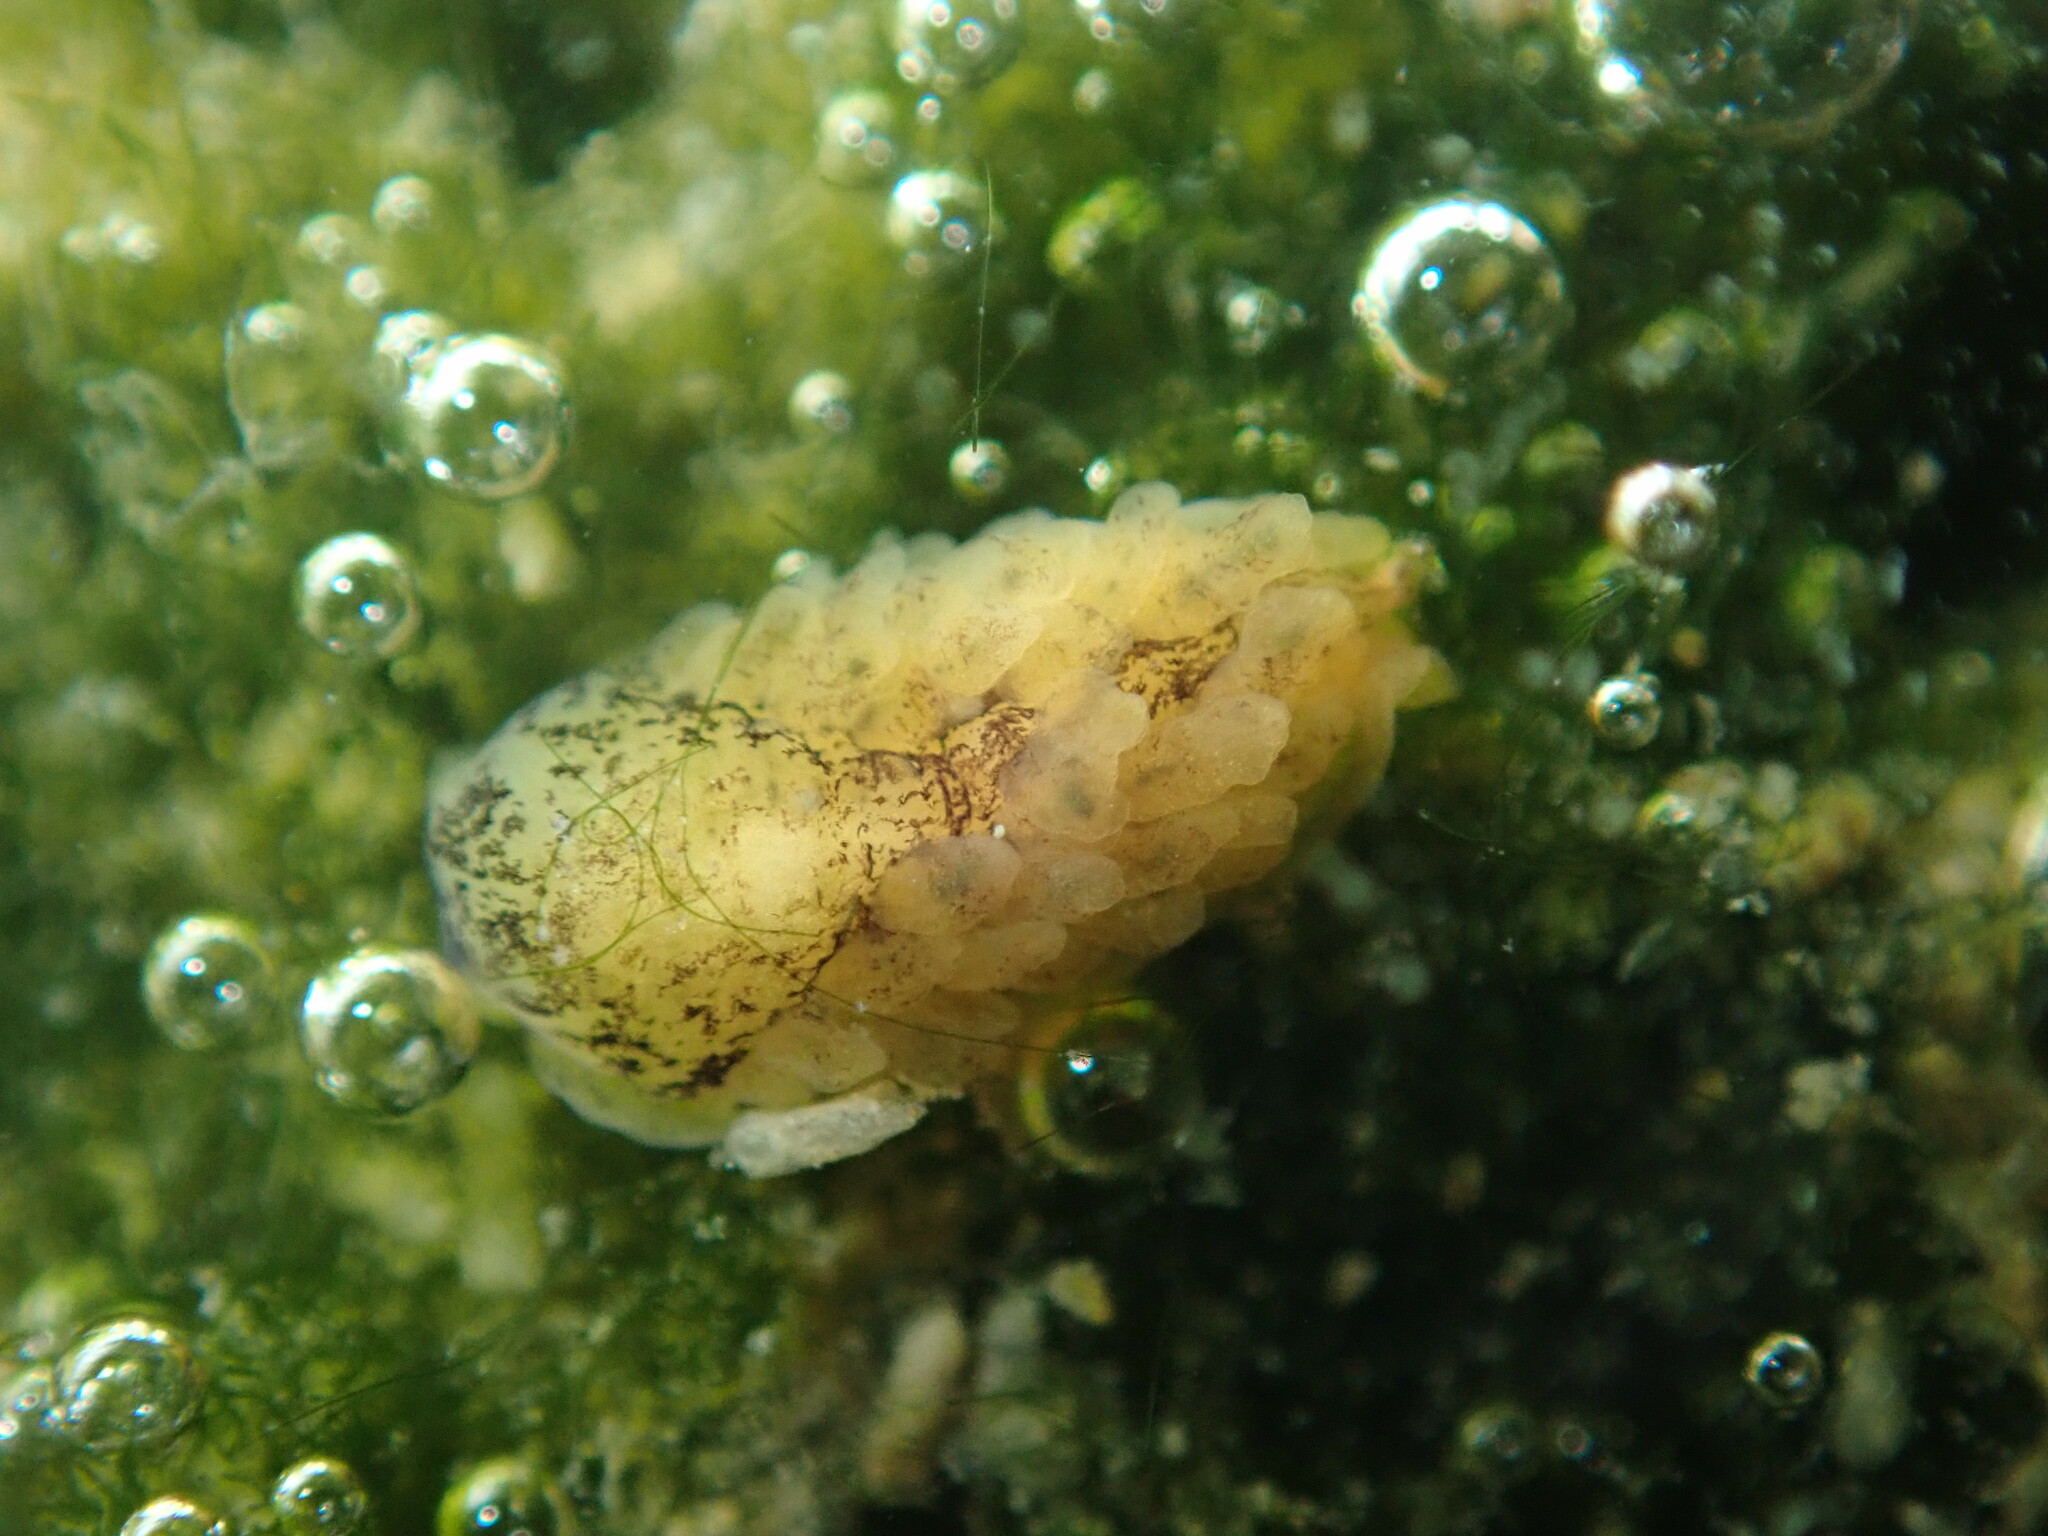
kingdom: Animalia
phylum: Mollusca
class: Gastropoda
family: Limapontiidae
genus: Alderia
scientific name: Alderia modesta
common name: Modest alderia
